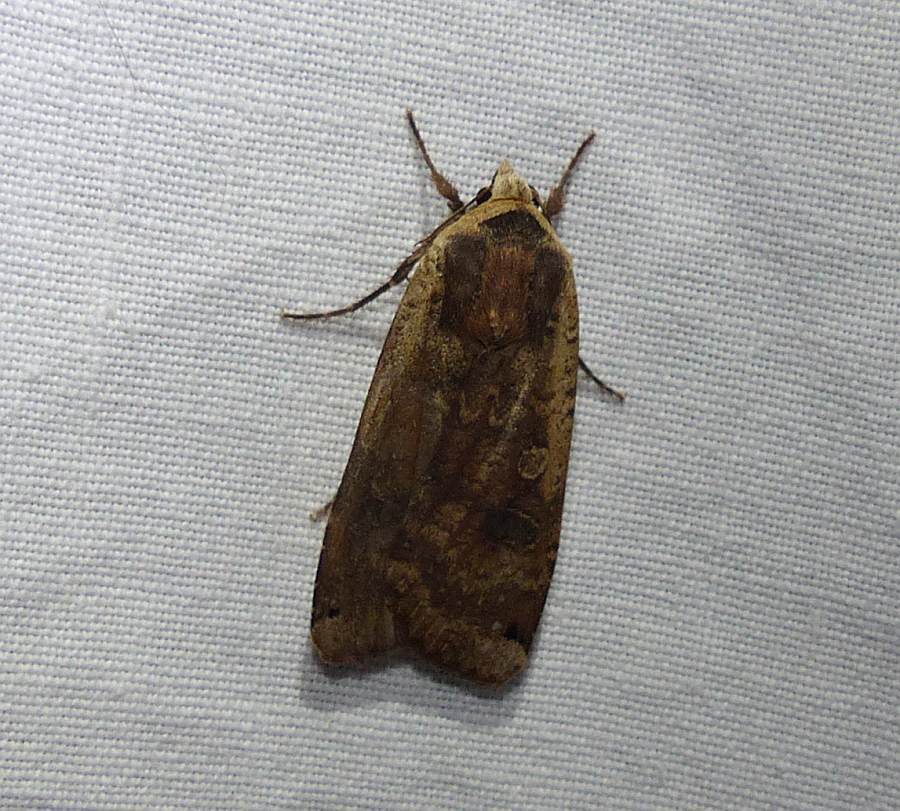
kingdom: Animalia
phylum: Arthropoda
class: Insecta
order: Lepidoptera
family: Noctuidae
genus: Noctua
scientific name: Noctua pronuba
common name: Large yellow underwing
